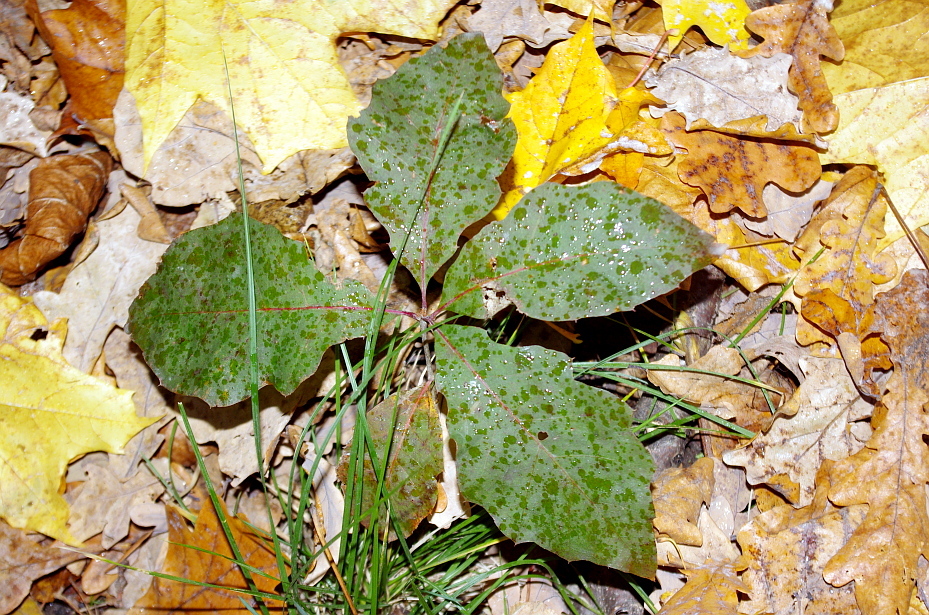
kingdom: Plantae
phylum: Tracheophyta
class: Magnoliopsida
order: Fagales
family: Fagaceae
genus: Quercus
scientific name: Quercus rubra
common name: Red oak
